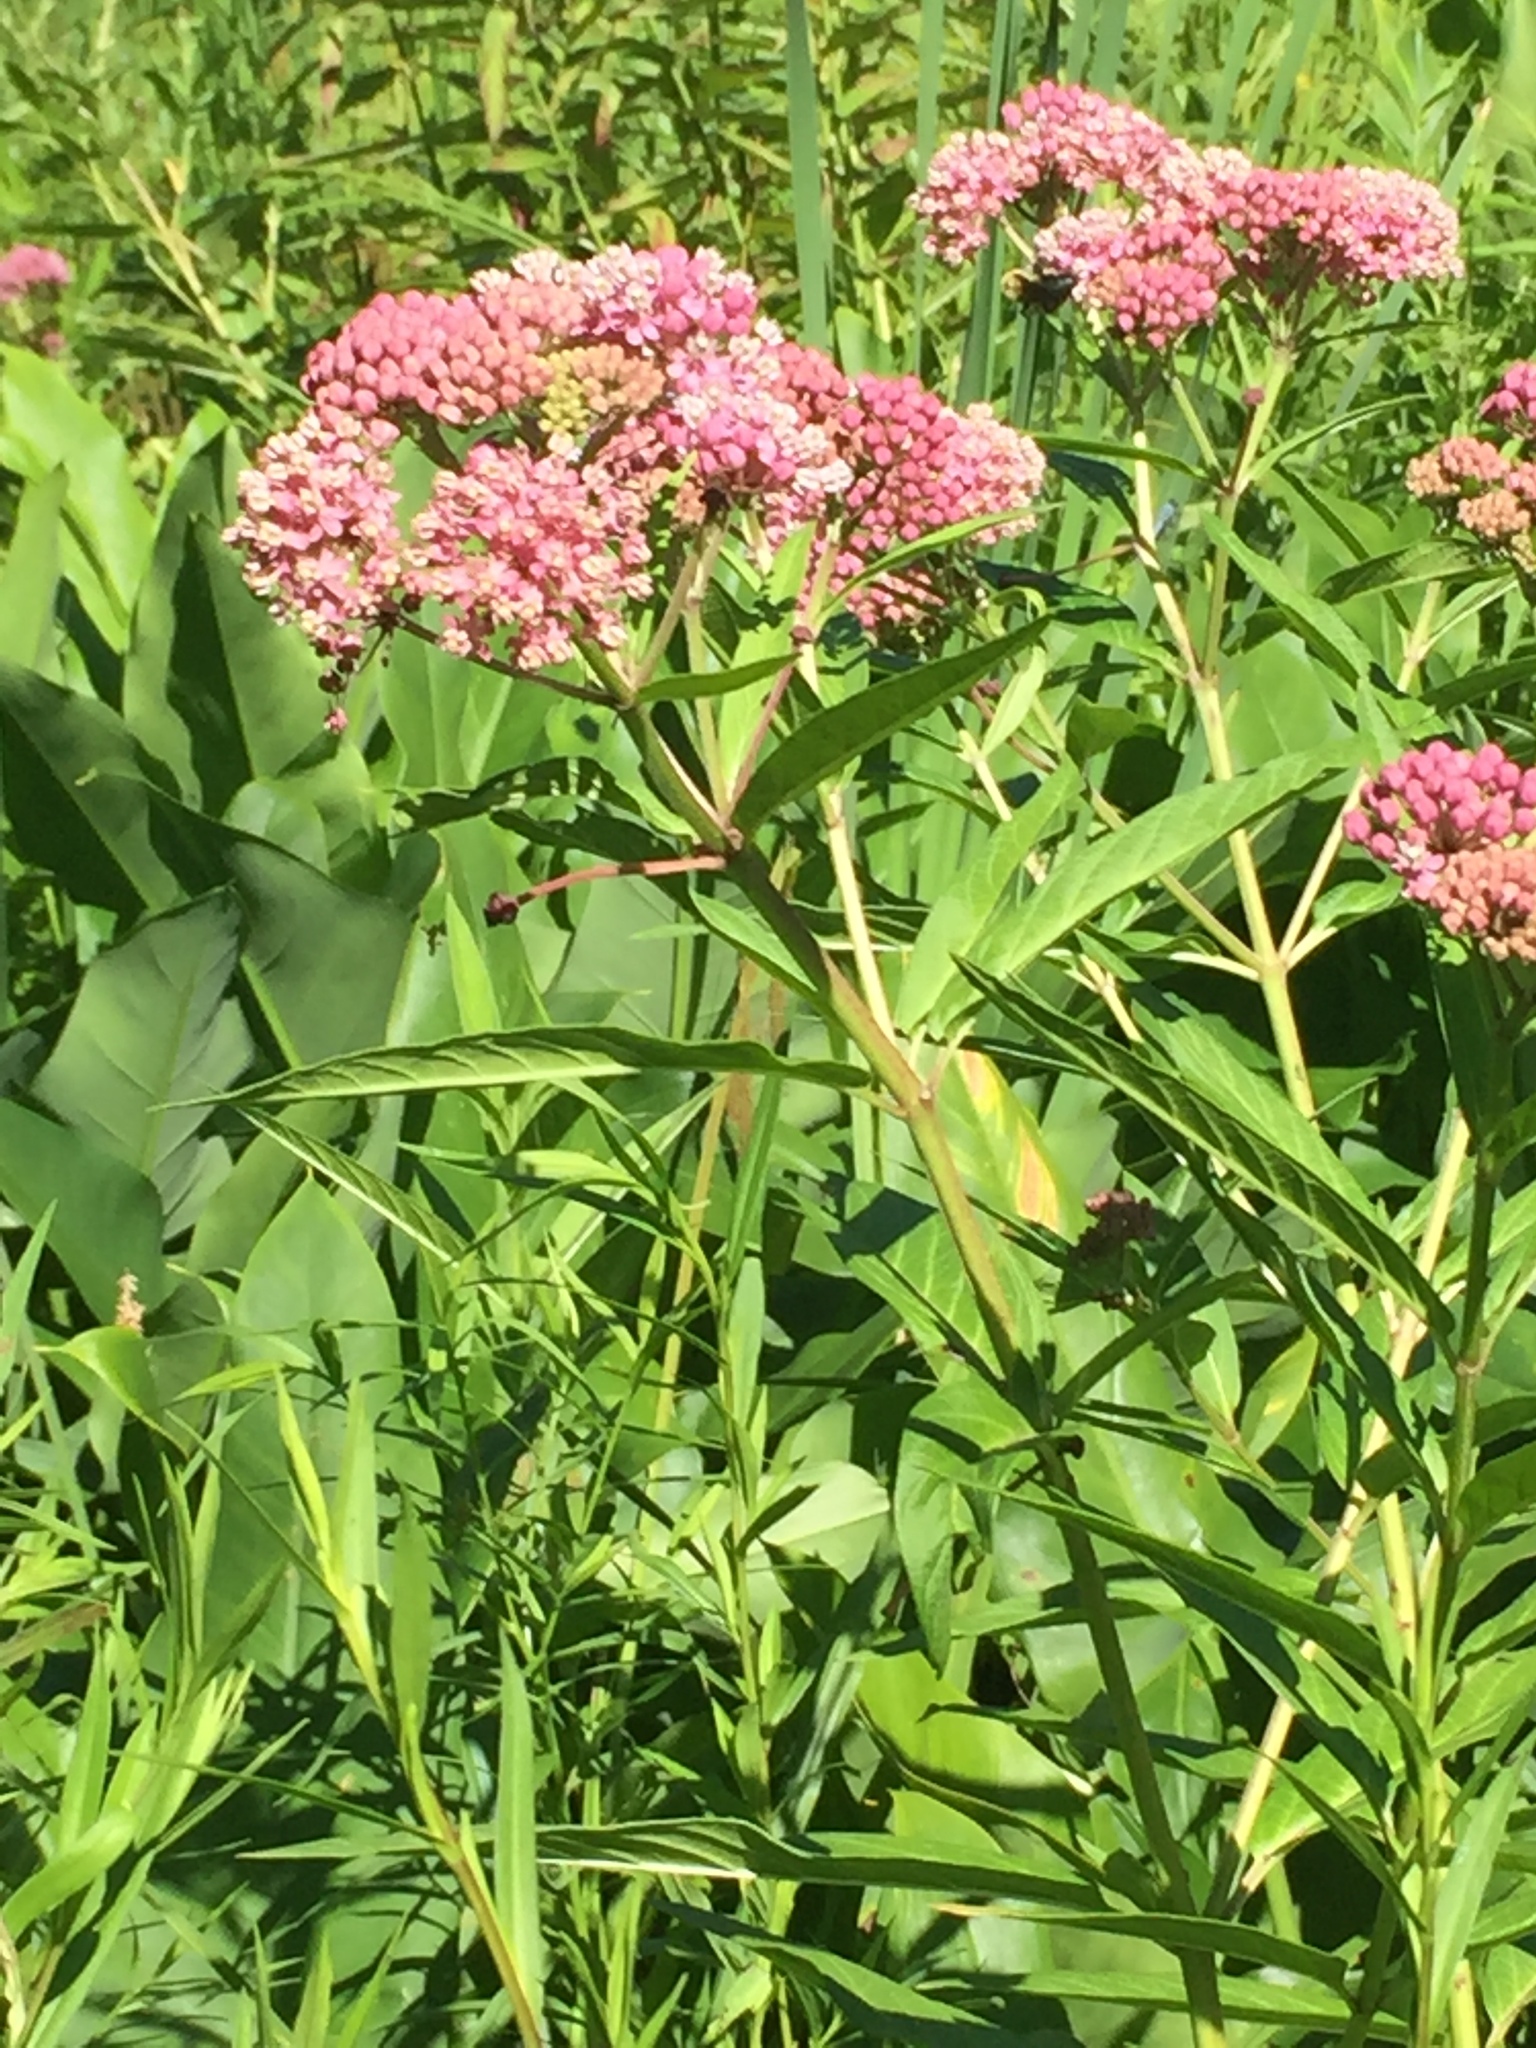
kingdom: Plantae
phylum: Tracheophyta
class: Magnoliopsida
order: Gentianales
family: Apocynaceae
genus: Asclepias
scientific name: Asclepias incarnata
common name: Swamp milkweed
